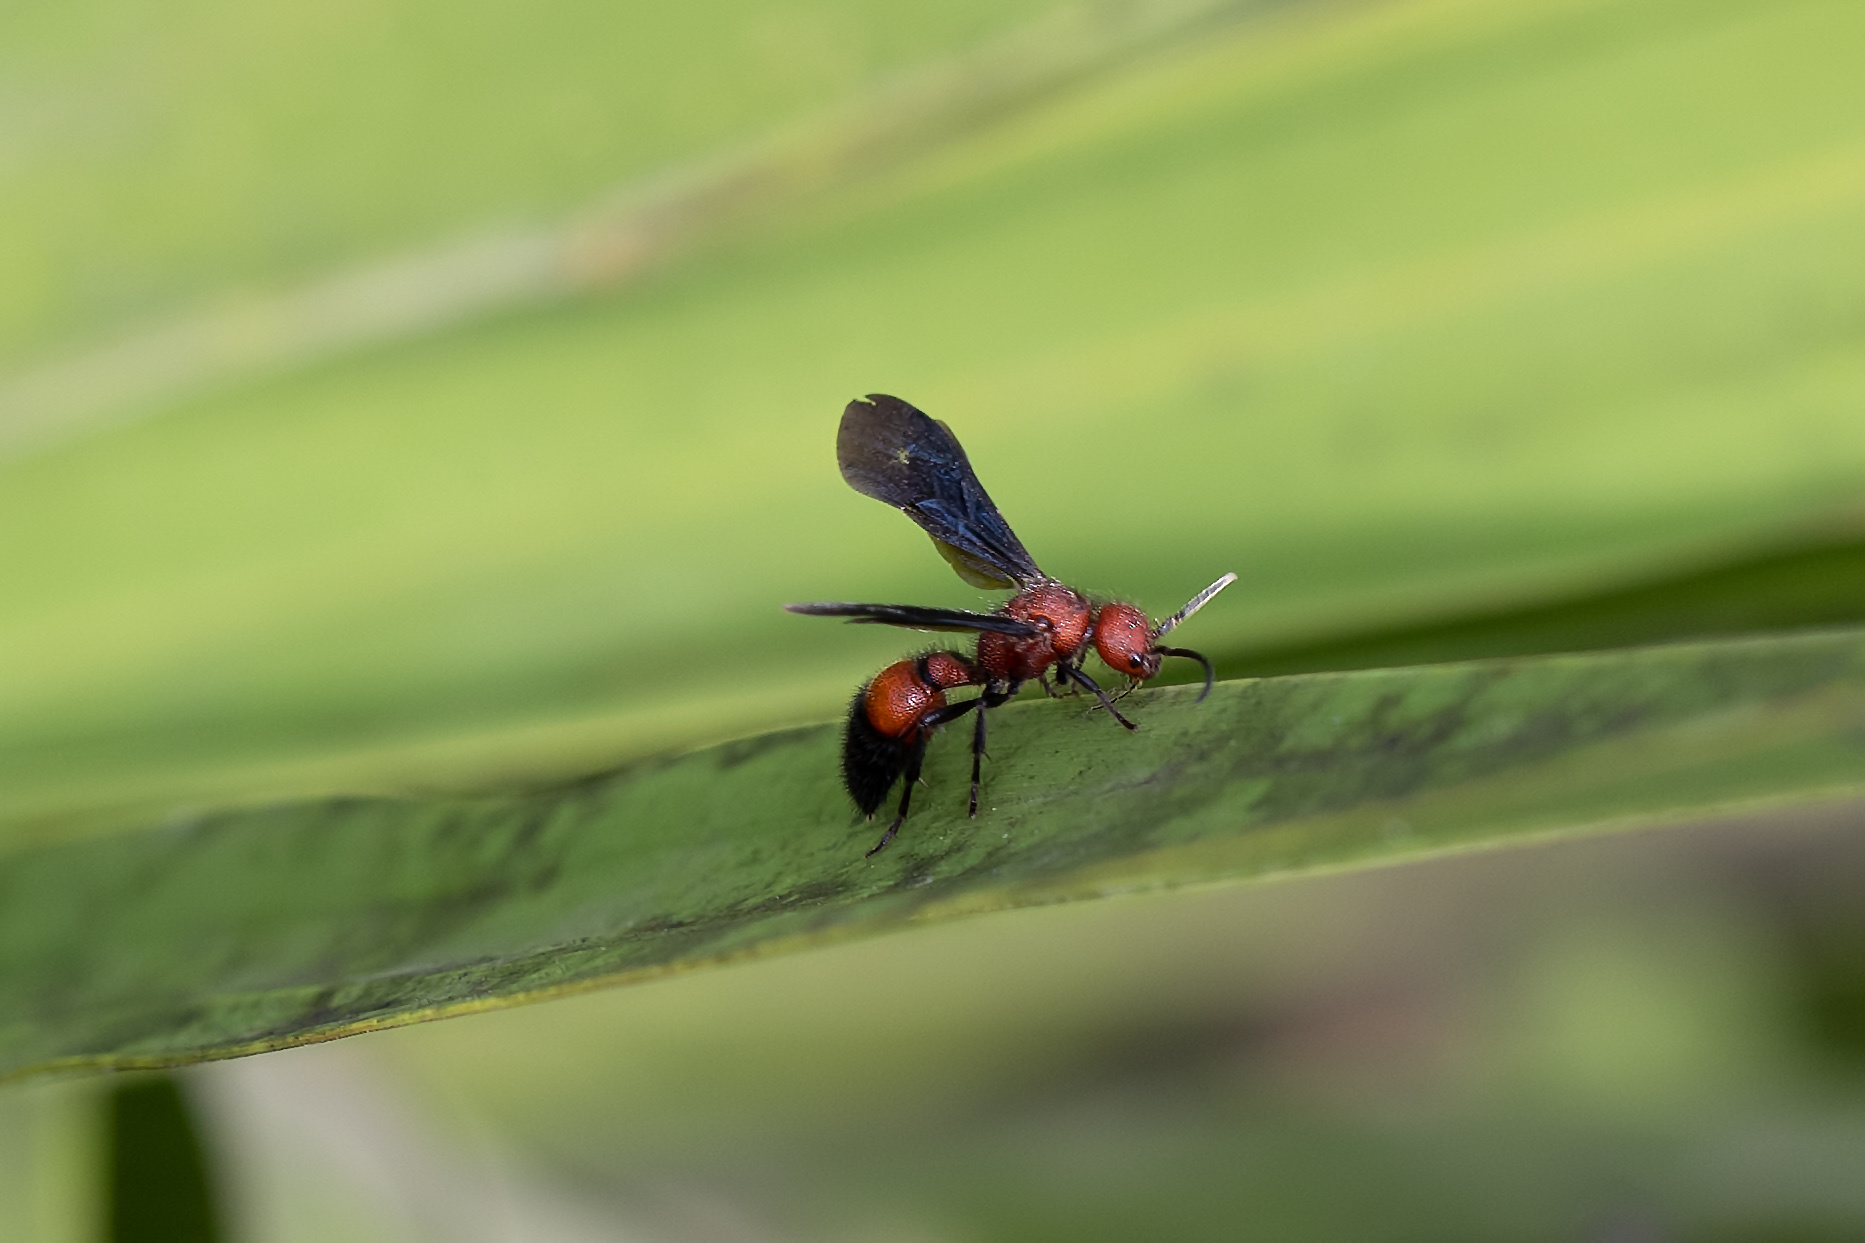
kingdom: Animalia
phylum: Arthropoda
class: Insecta
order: Hymenoptera
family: Mutillidae
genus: Sphaeropthalma
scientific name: Sphaeropthalma
